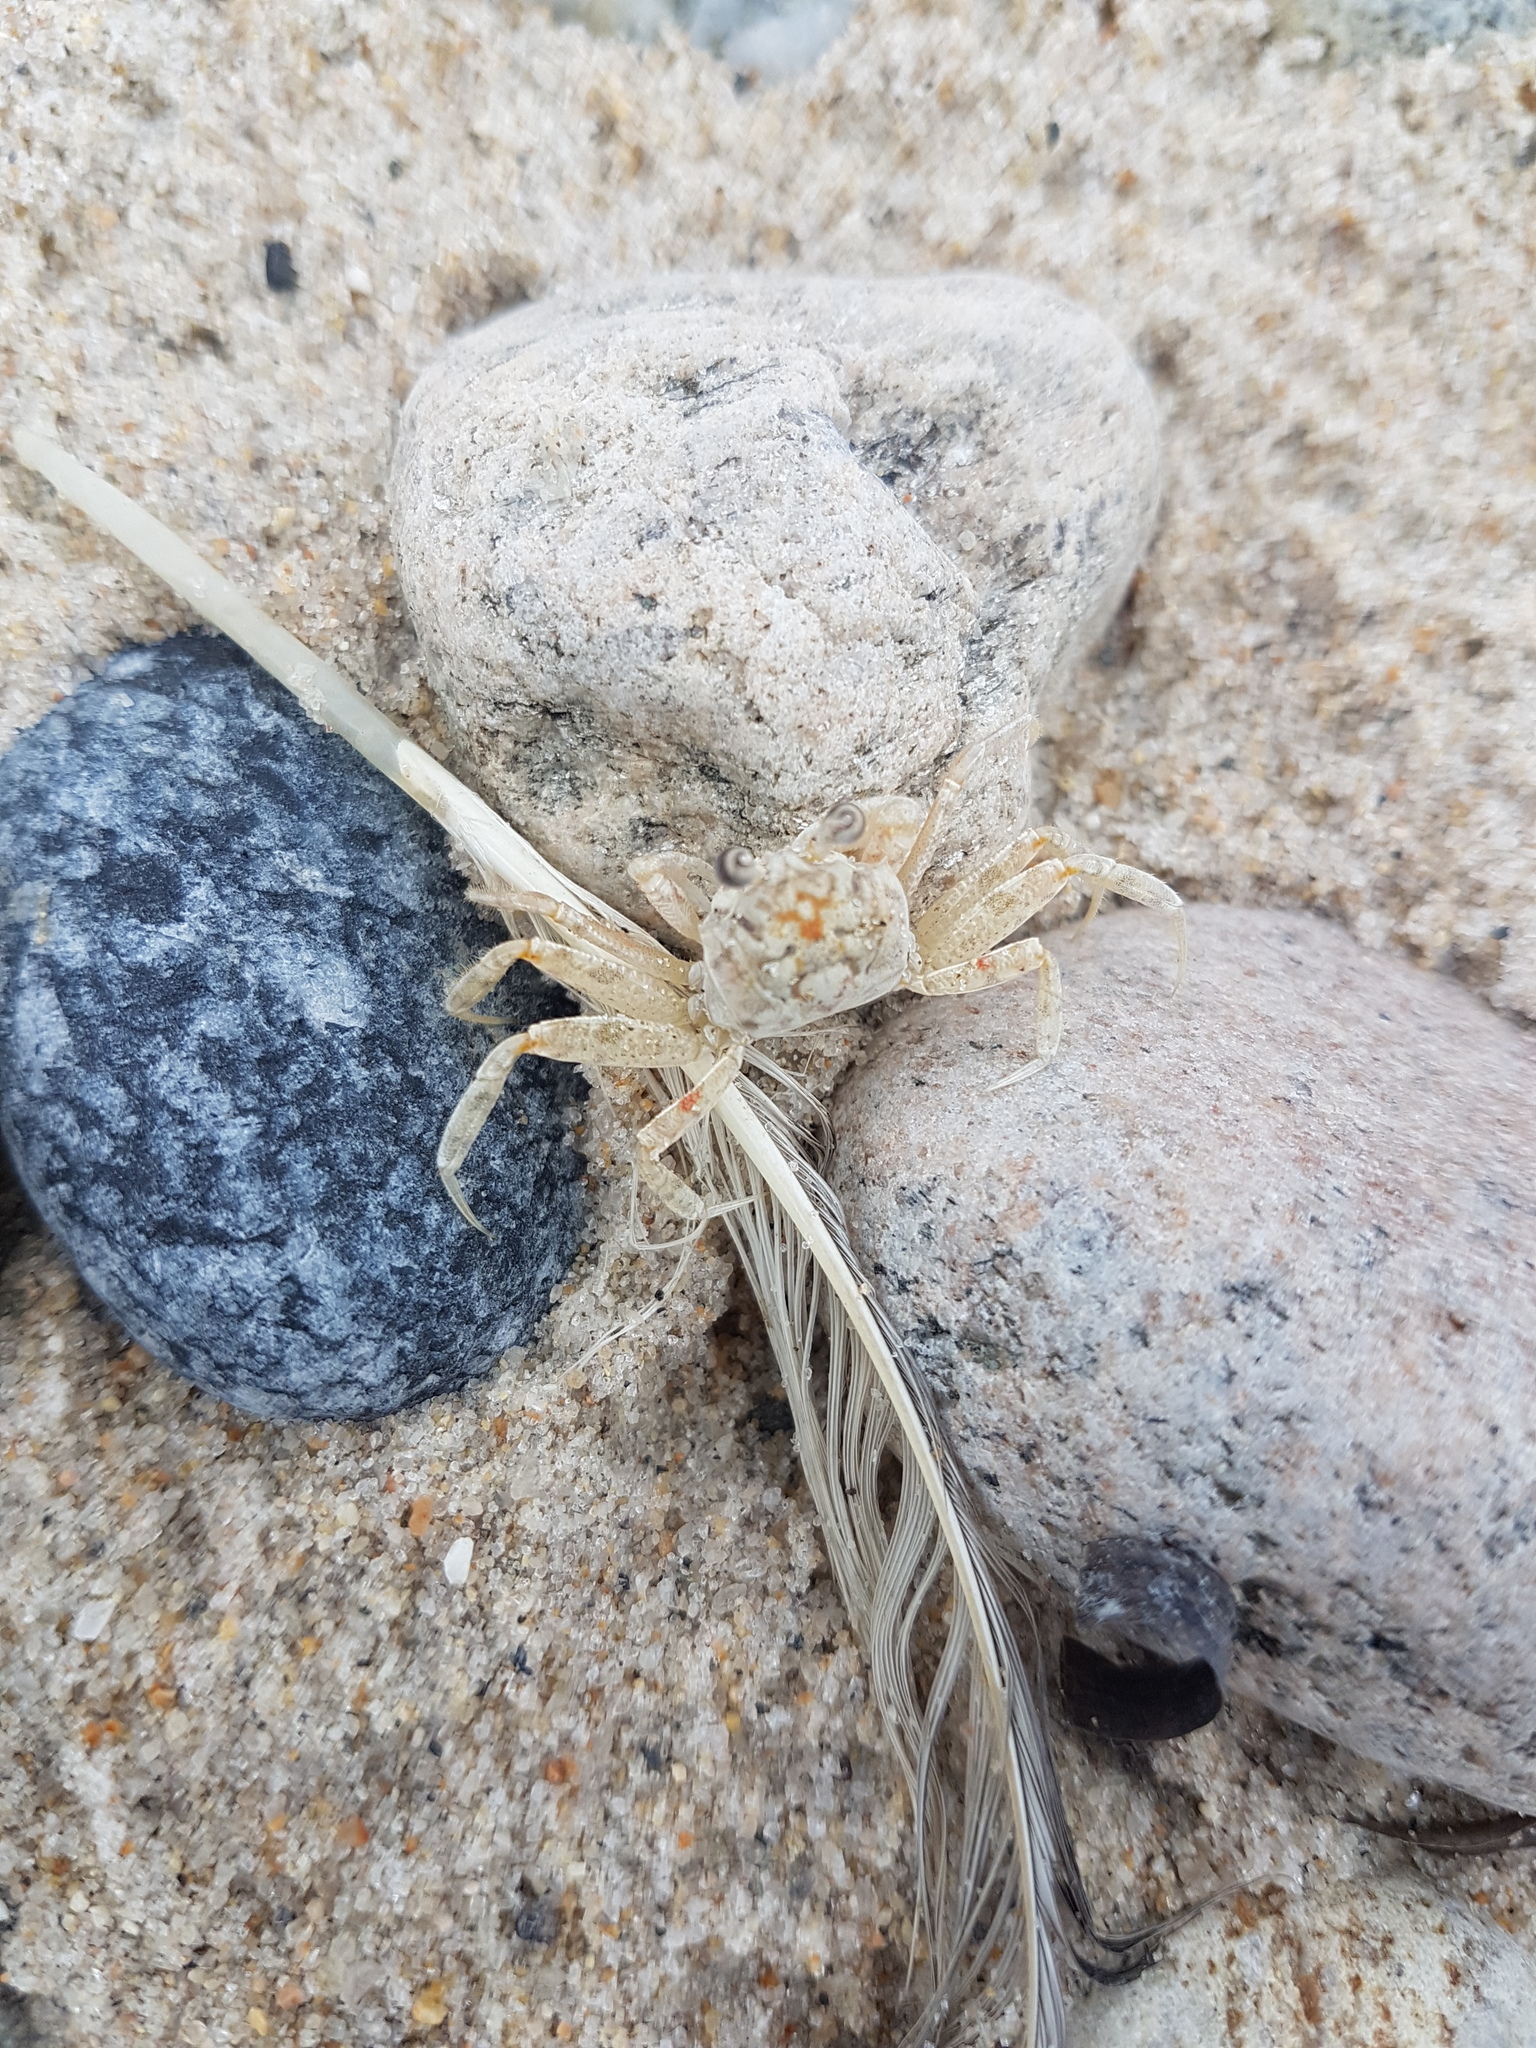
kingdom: Animalia
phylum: Arthropoda
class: Malacostraca
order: Decapoda
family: Ocypodidae
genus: Ocypode
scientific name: Ocypode quadrata
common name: Ghost crab
